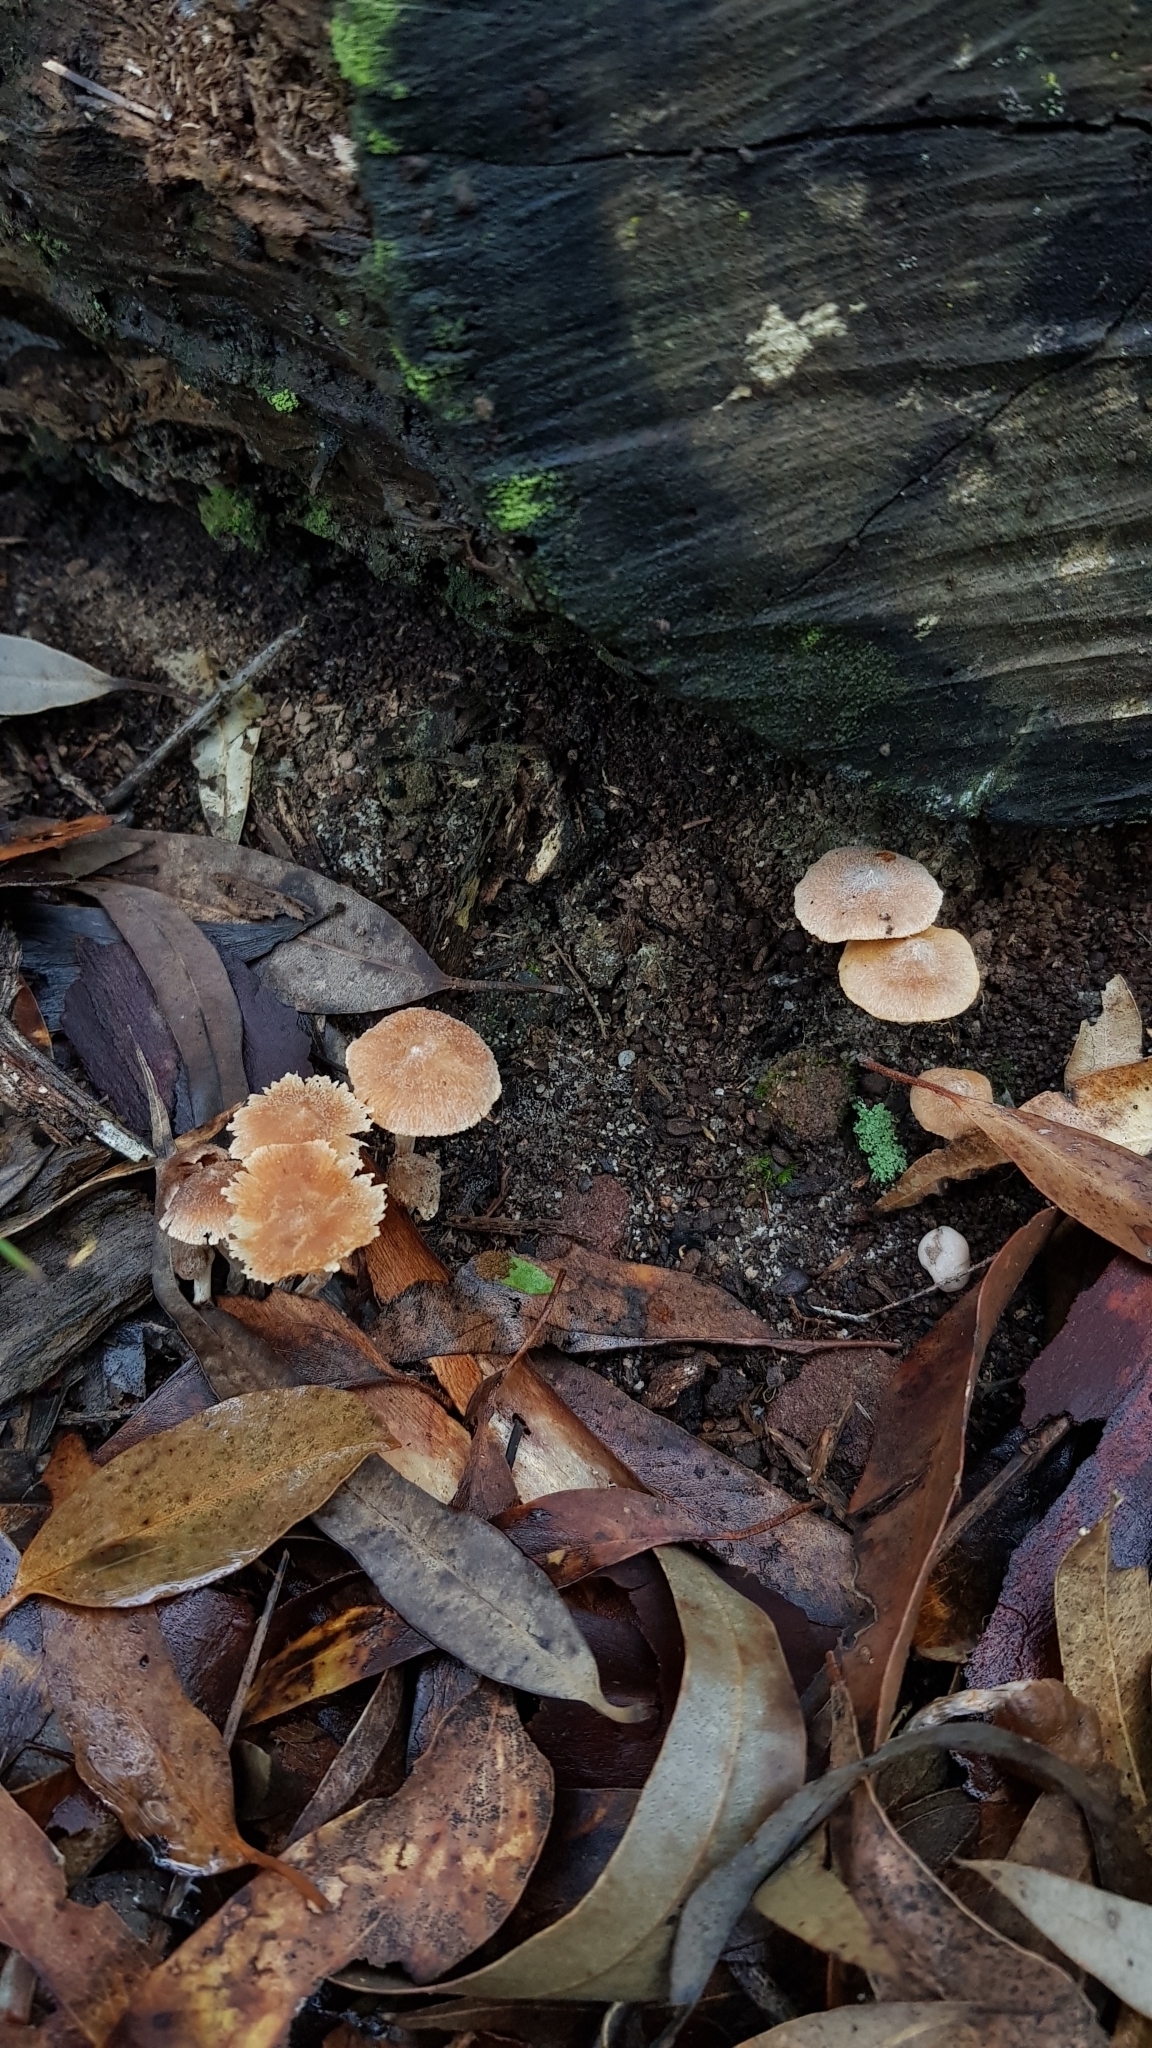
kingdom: Fungi
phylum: Basidiomycota
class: Agaricomycetes
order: Agaricales
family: Inocybaceae
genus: Inocybe
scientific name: Inocybe austrofibrillosa
